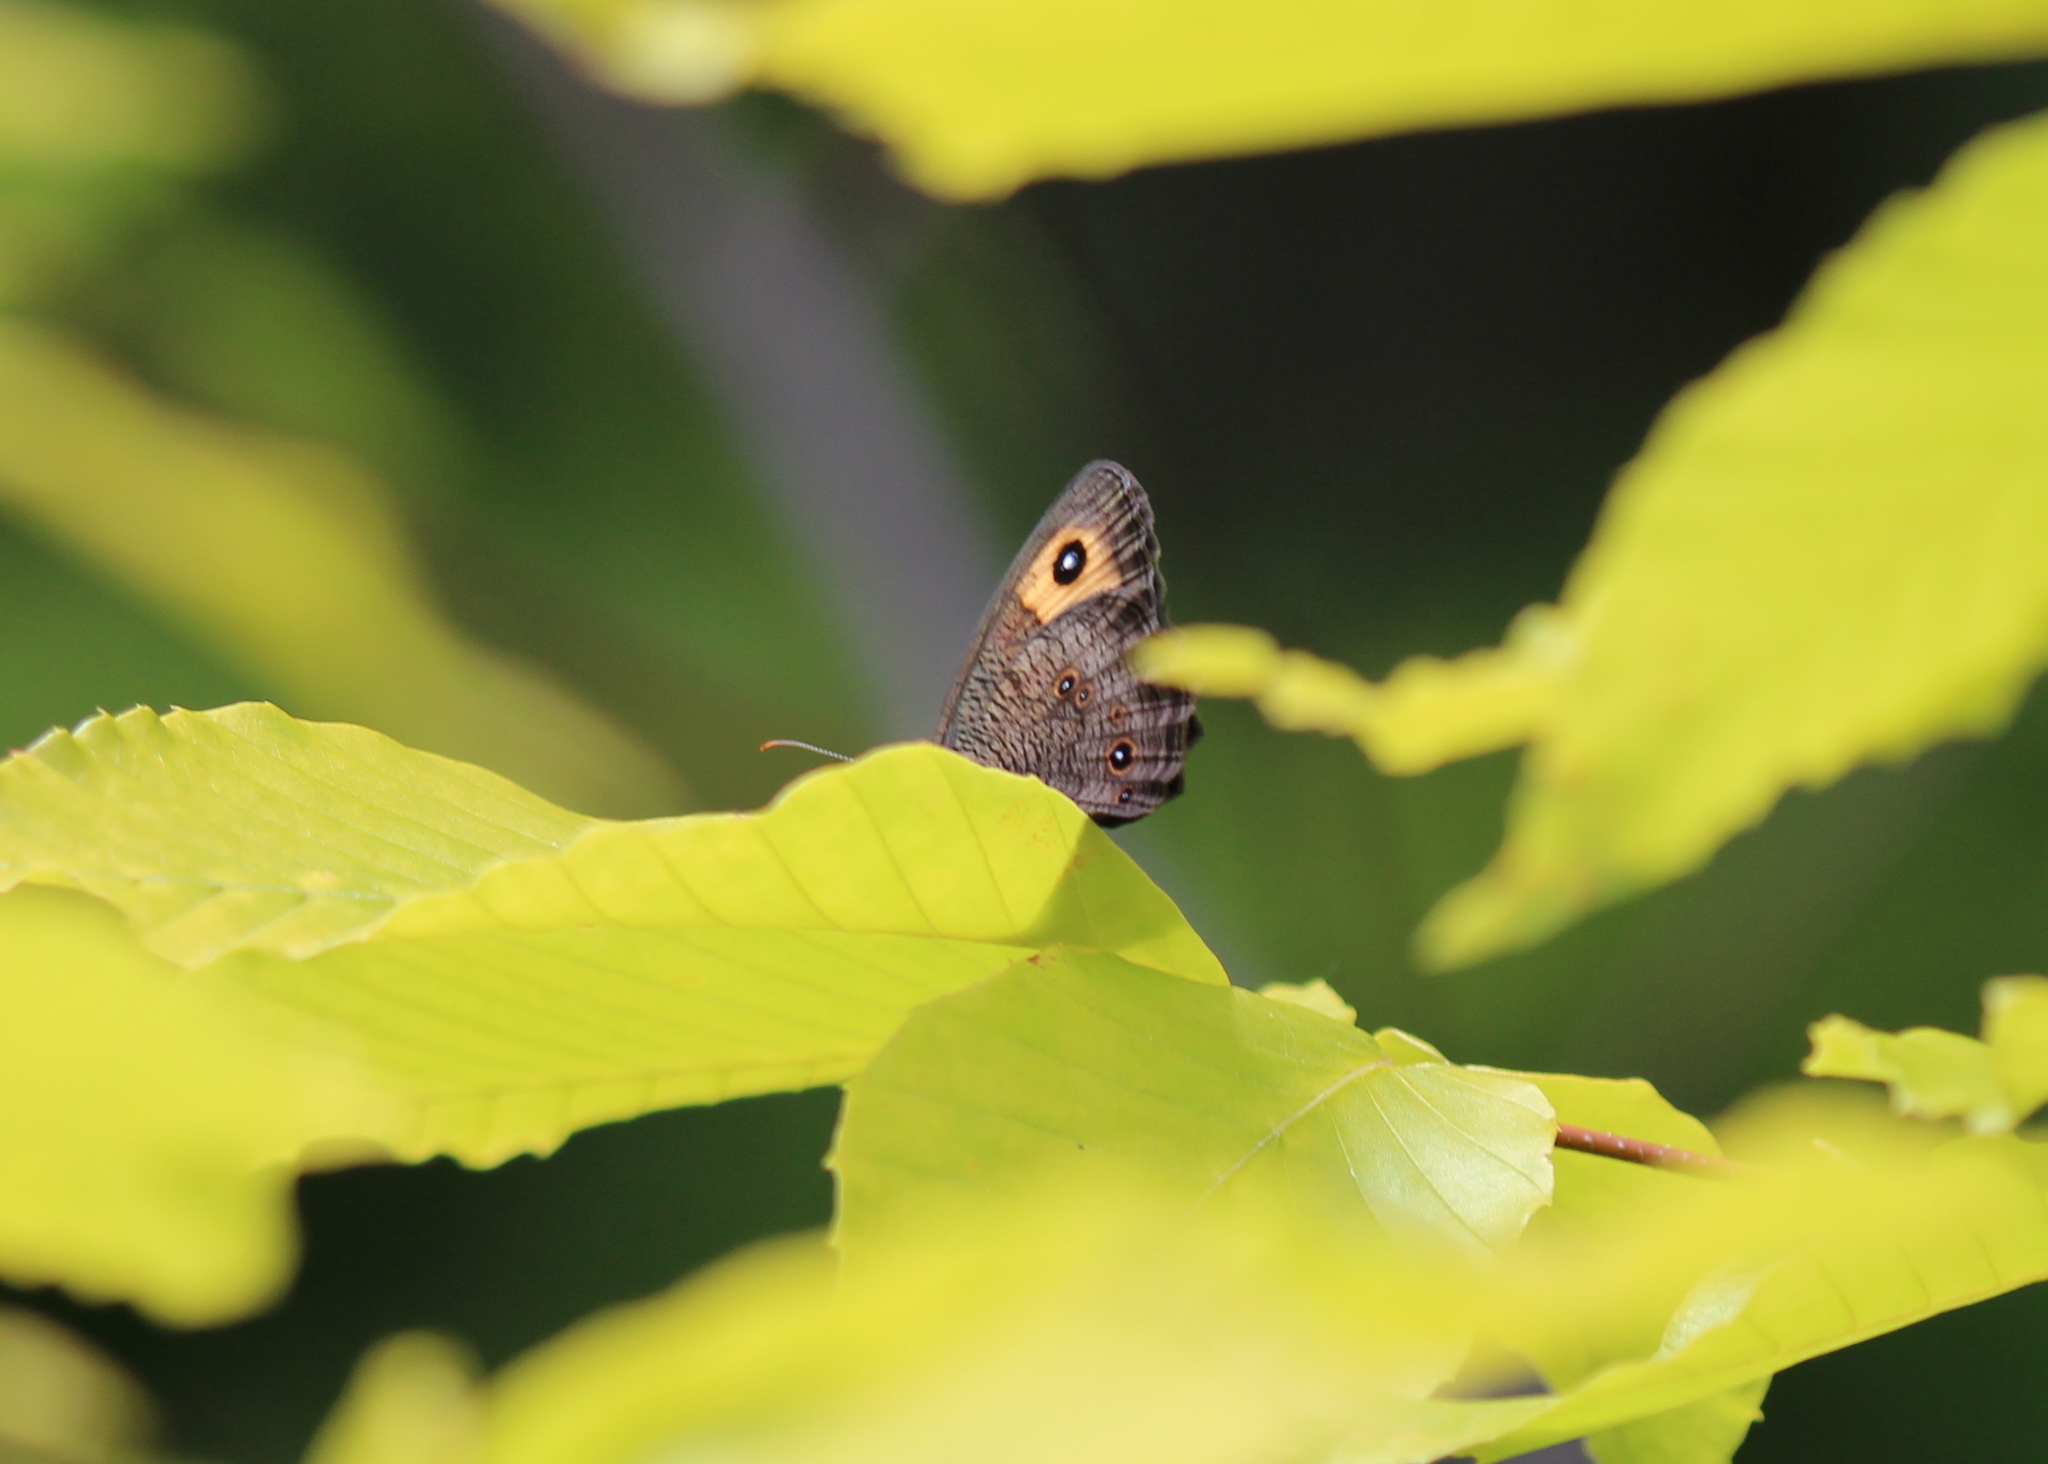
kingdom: Animalia
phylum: Arthropoda
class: Insecta
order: Lepidoptera
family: Nymphalidae
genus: Cercyonis
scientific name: Cercyonis pegala
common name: Common wood-nymph
